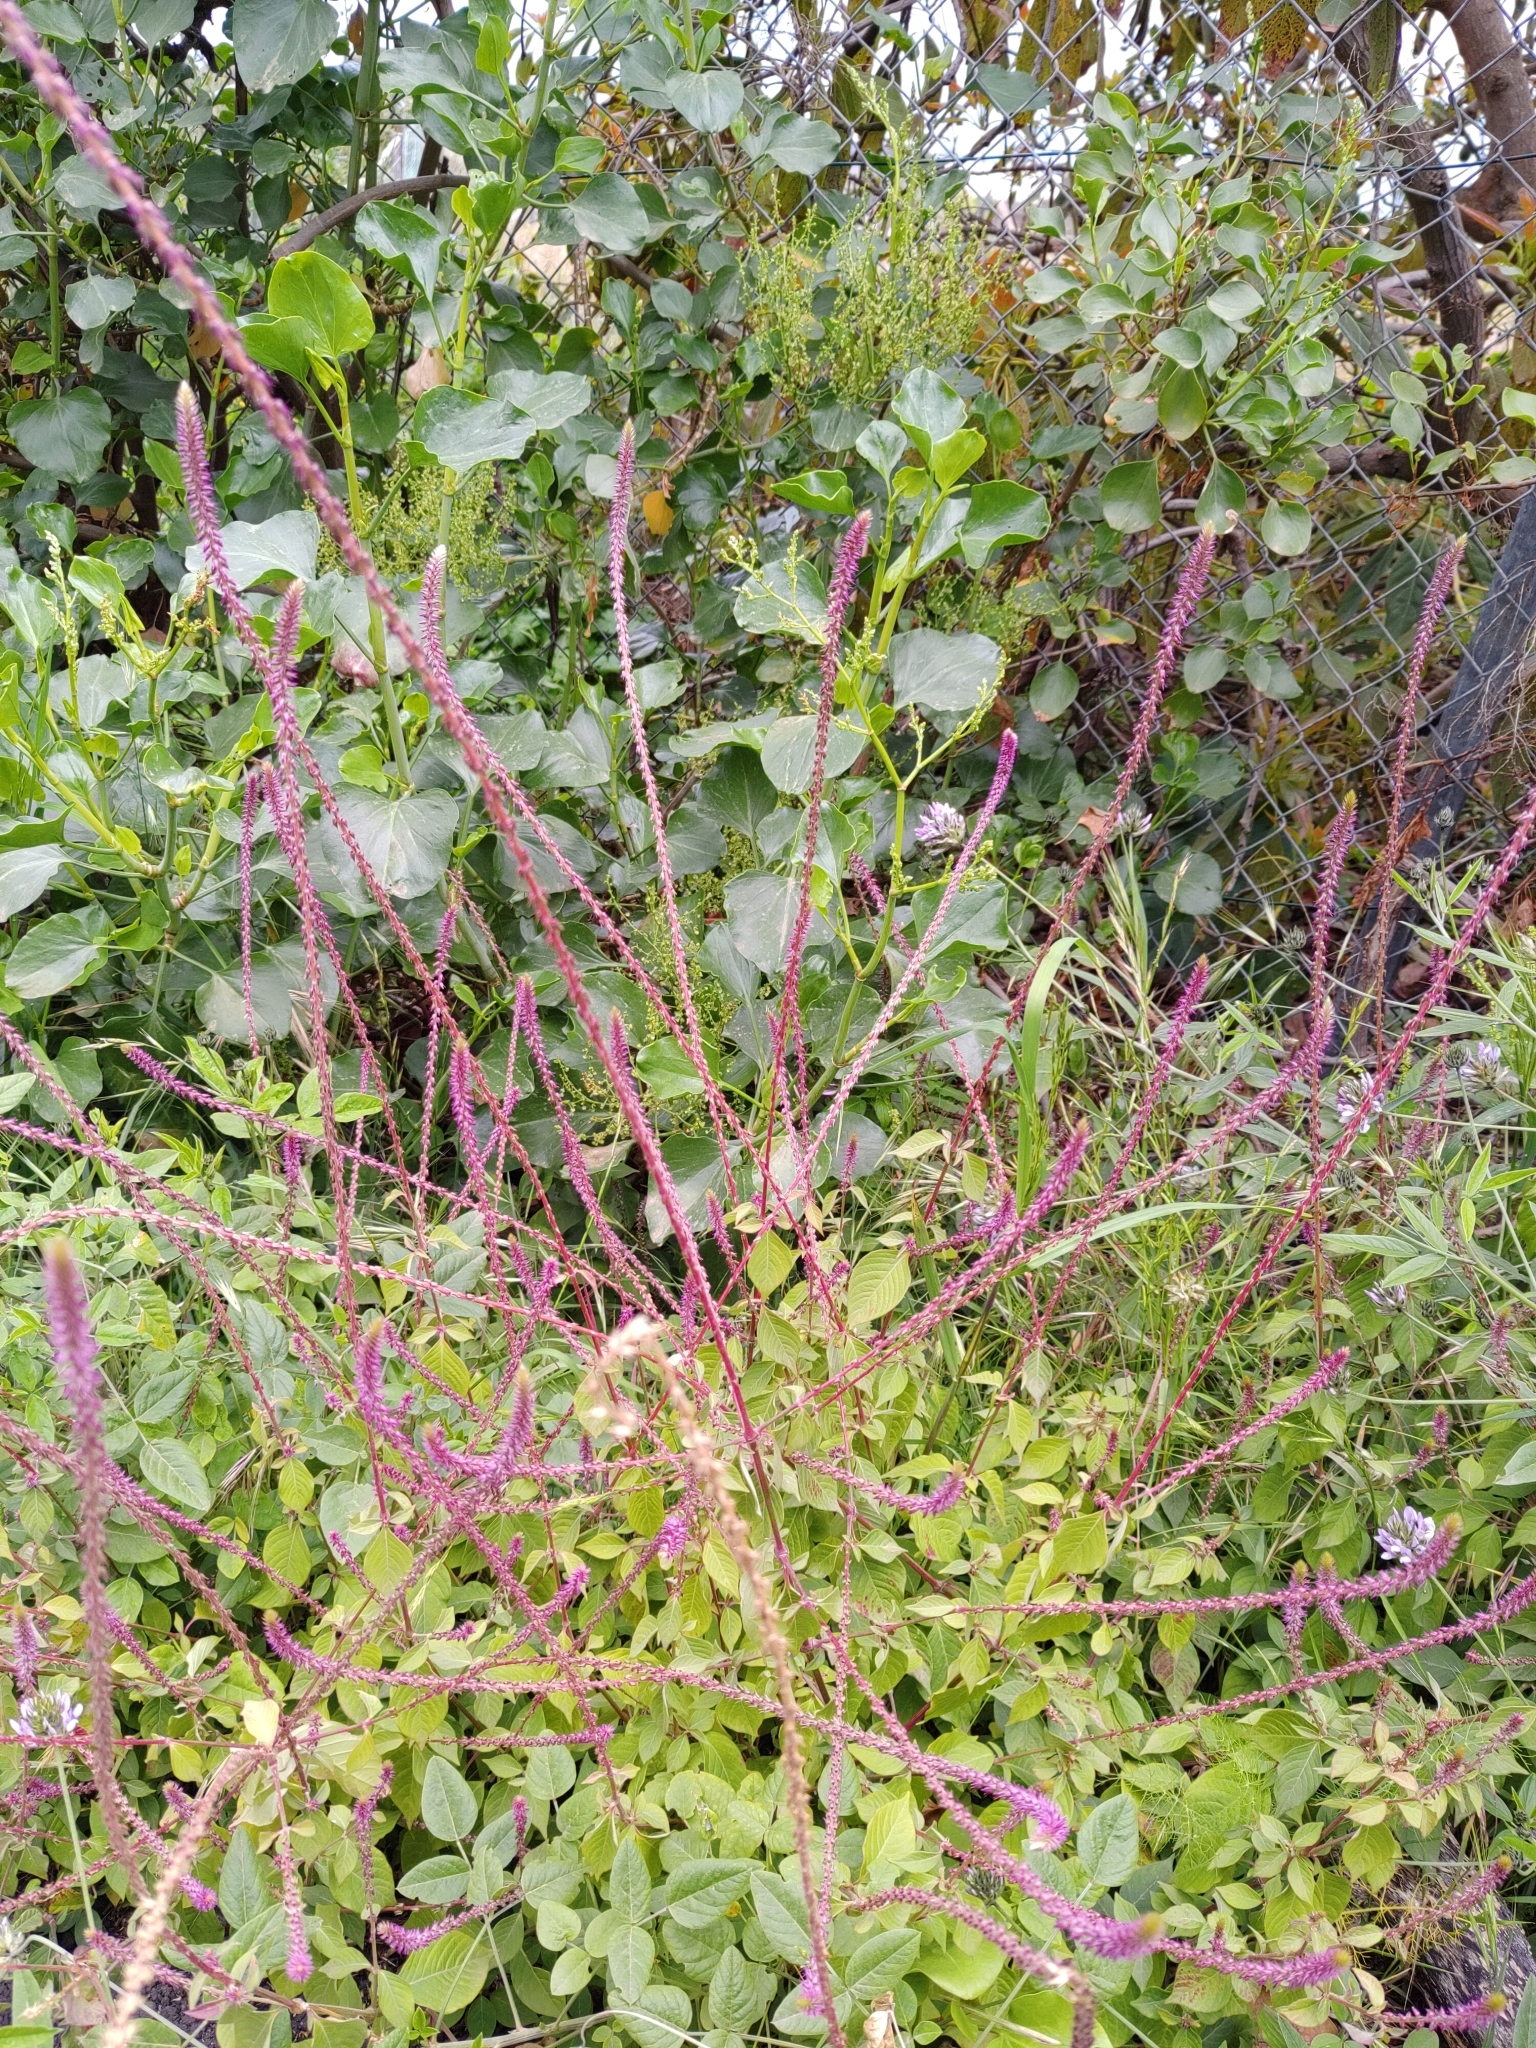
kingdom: Plantae
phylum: Tracheophyta
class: Magnoliopsida
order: Caryophyllales
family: Amaranthaceae
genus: Achyranthes
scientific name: Achyranthes aspera
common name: Devil's horsewhip
